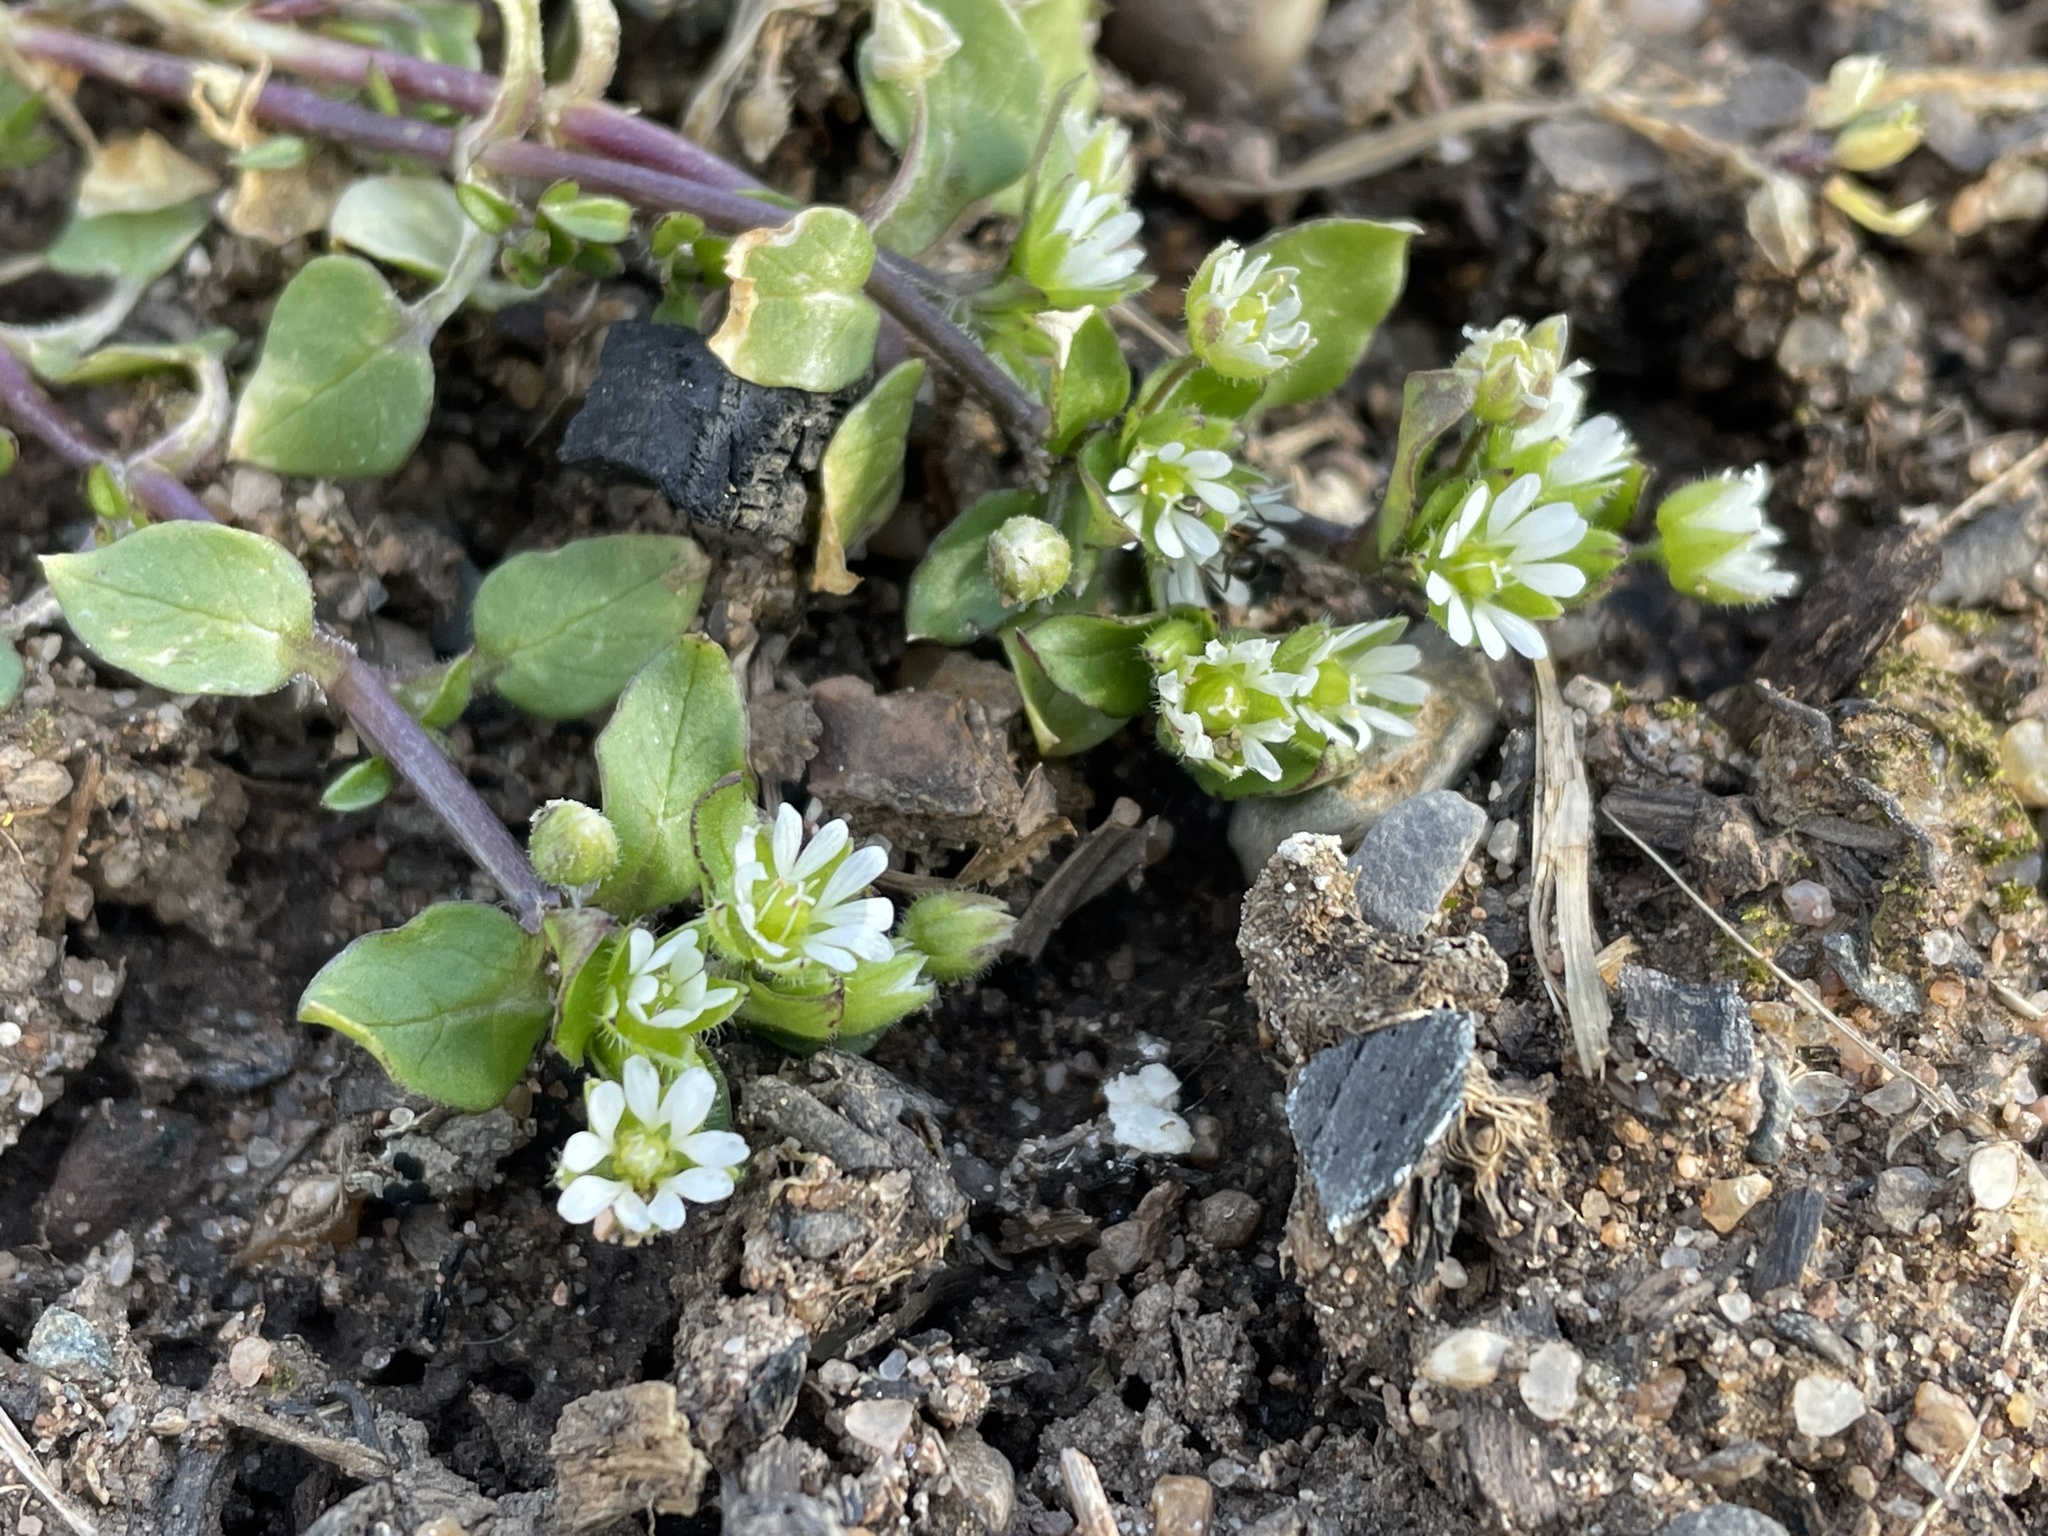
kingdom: Plantae
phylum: Tracheophyta
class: Magnoliopsida
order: Caryophyllales
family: Caryophyllaceae
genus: Stellaria
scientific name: Stellaria media
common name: Common chickweed
